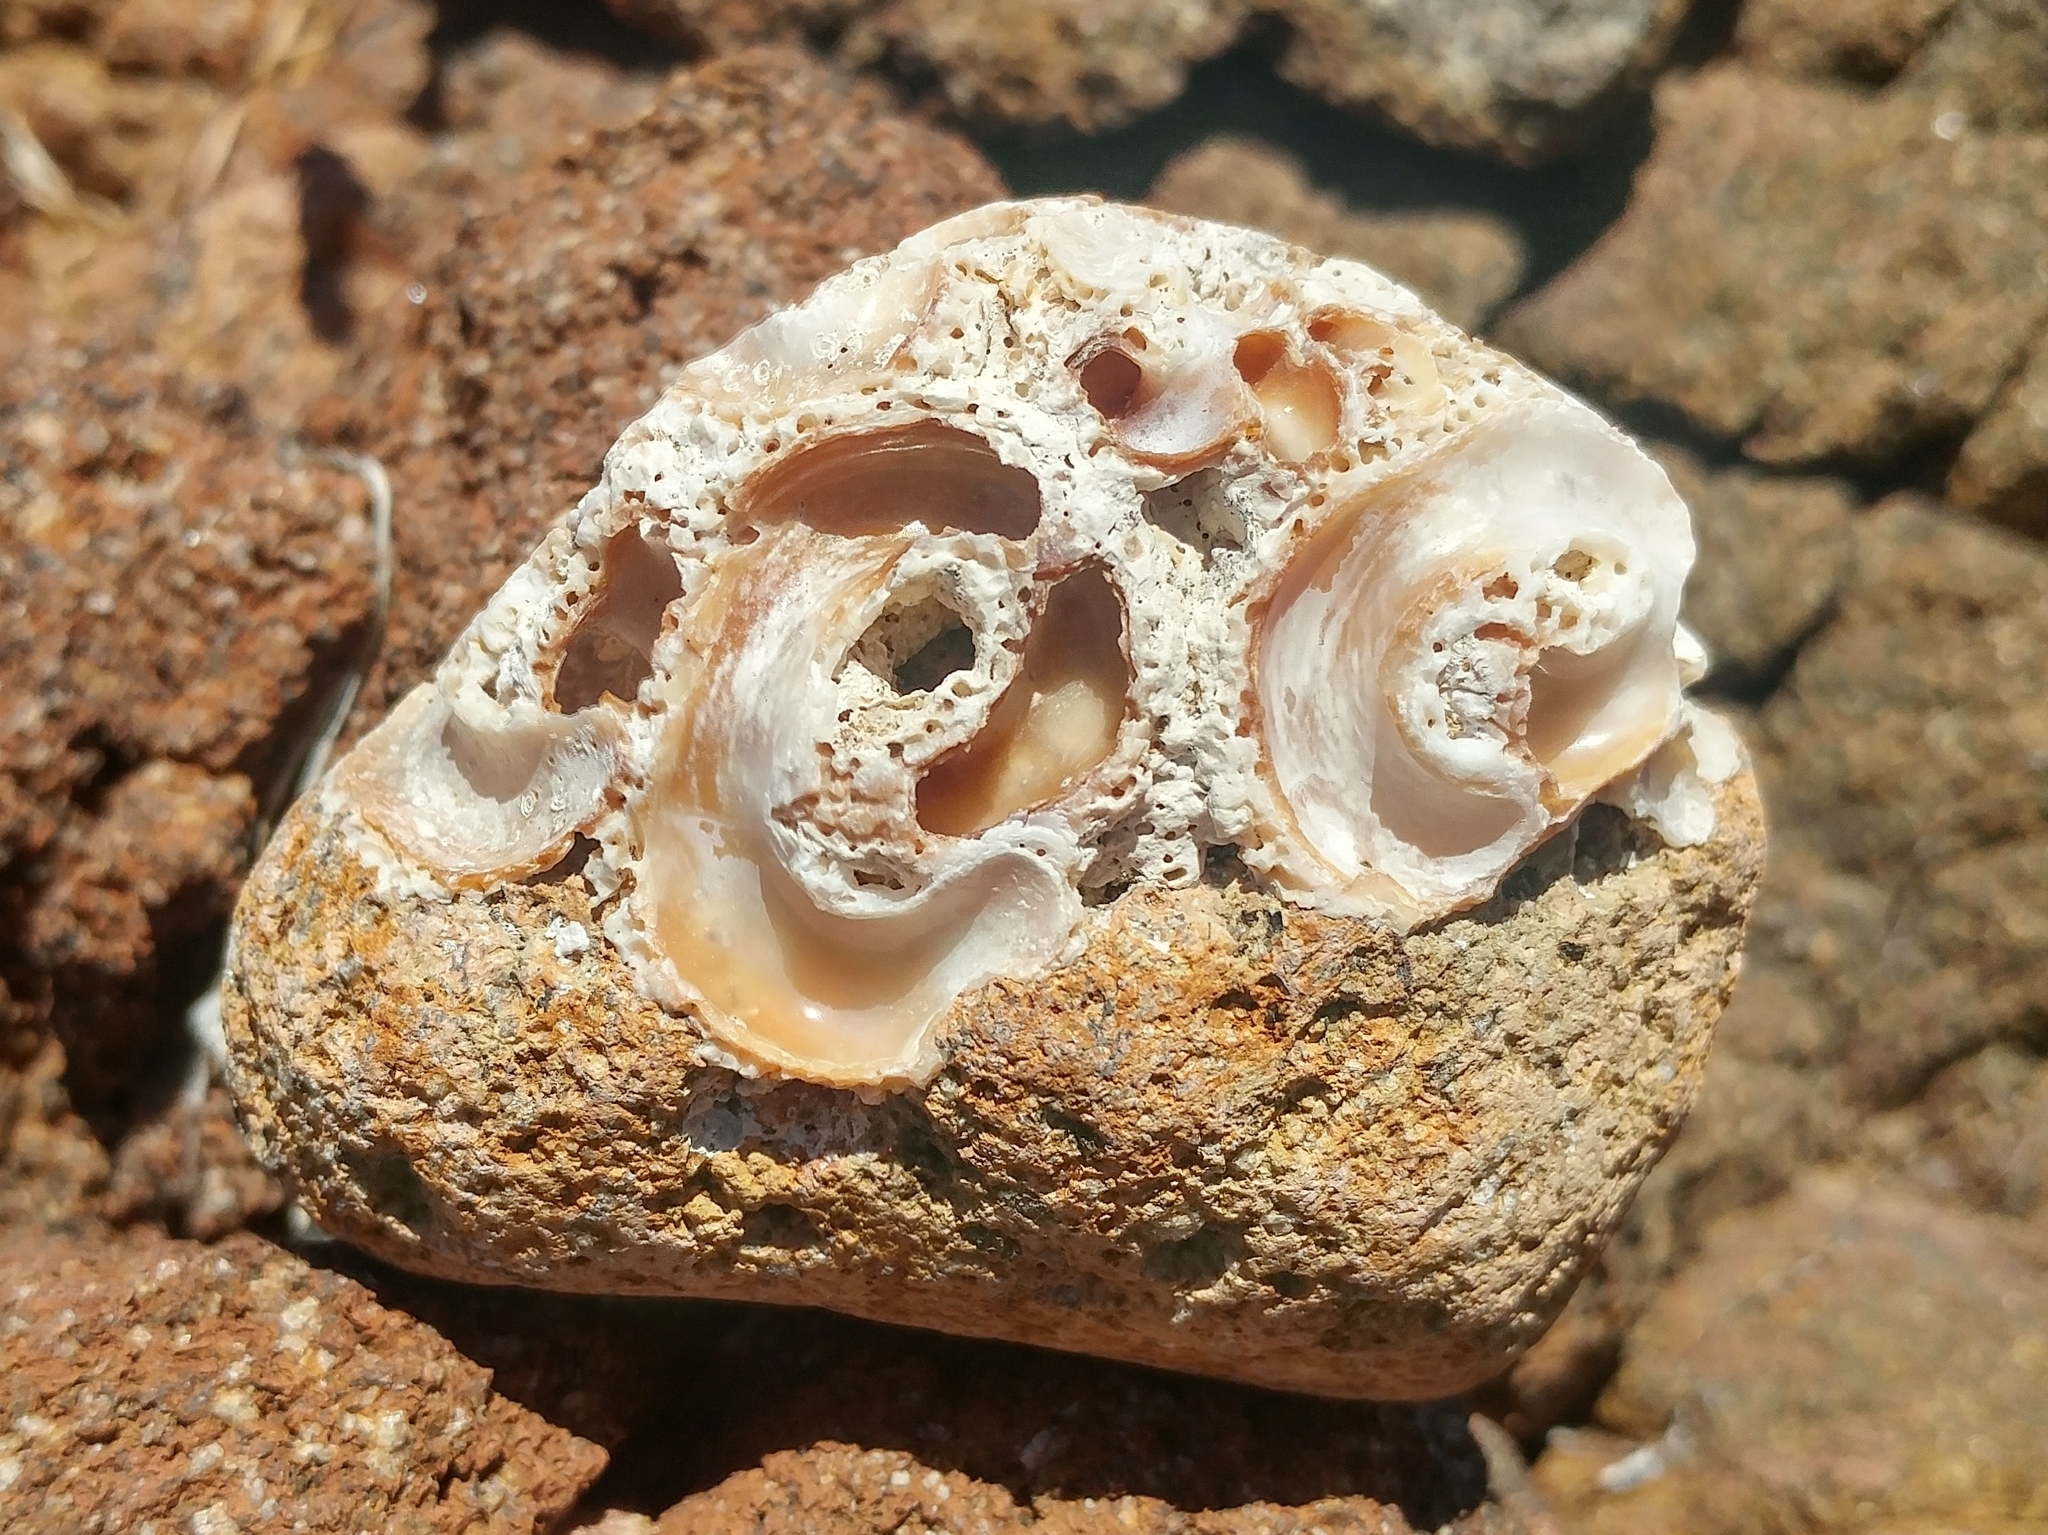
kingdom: Animalia
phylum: Mollusca
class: Gastropoda
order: Littorinimorpha
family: Vermetidae
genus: Thylacodes
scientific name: Thylacodes squamigerus
